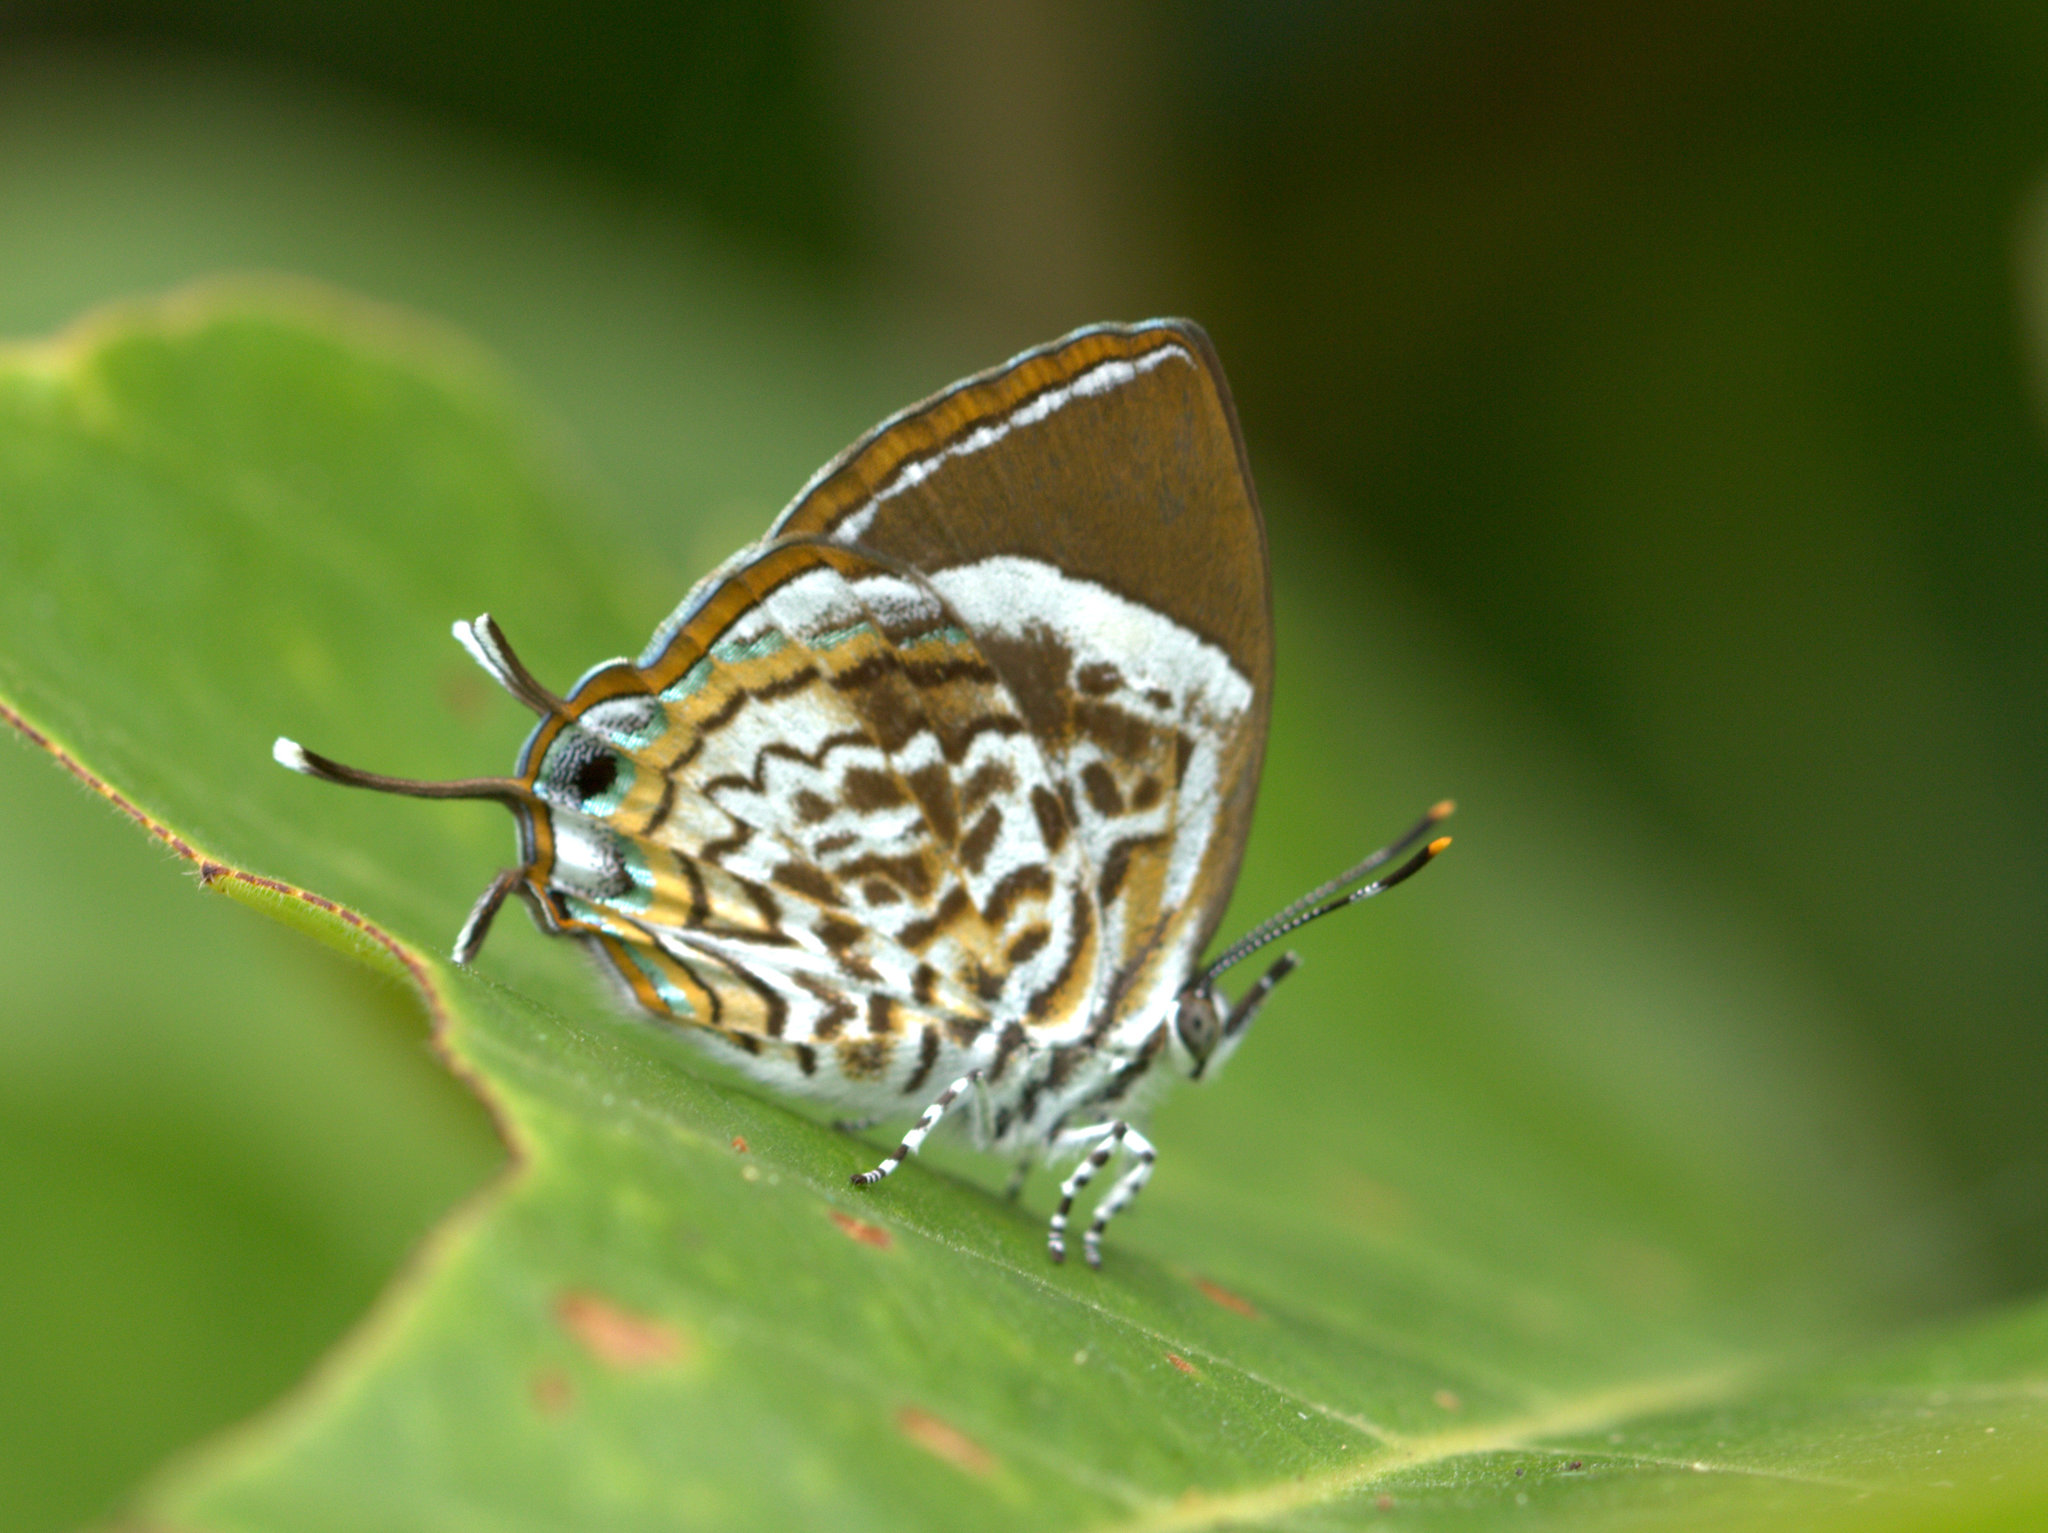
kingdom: Animalia
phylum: Arthropoda
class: Insecta
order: Lepidoptera
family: Lycaenidae
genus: Rathinda
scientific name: Rathinda amor
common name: Monkey puzzle
